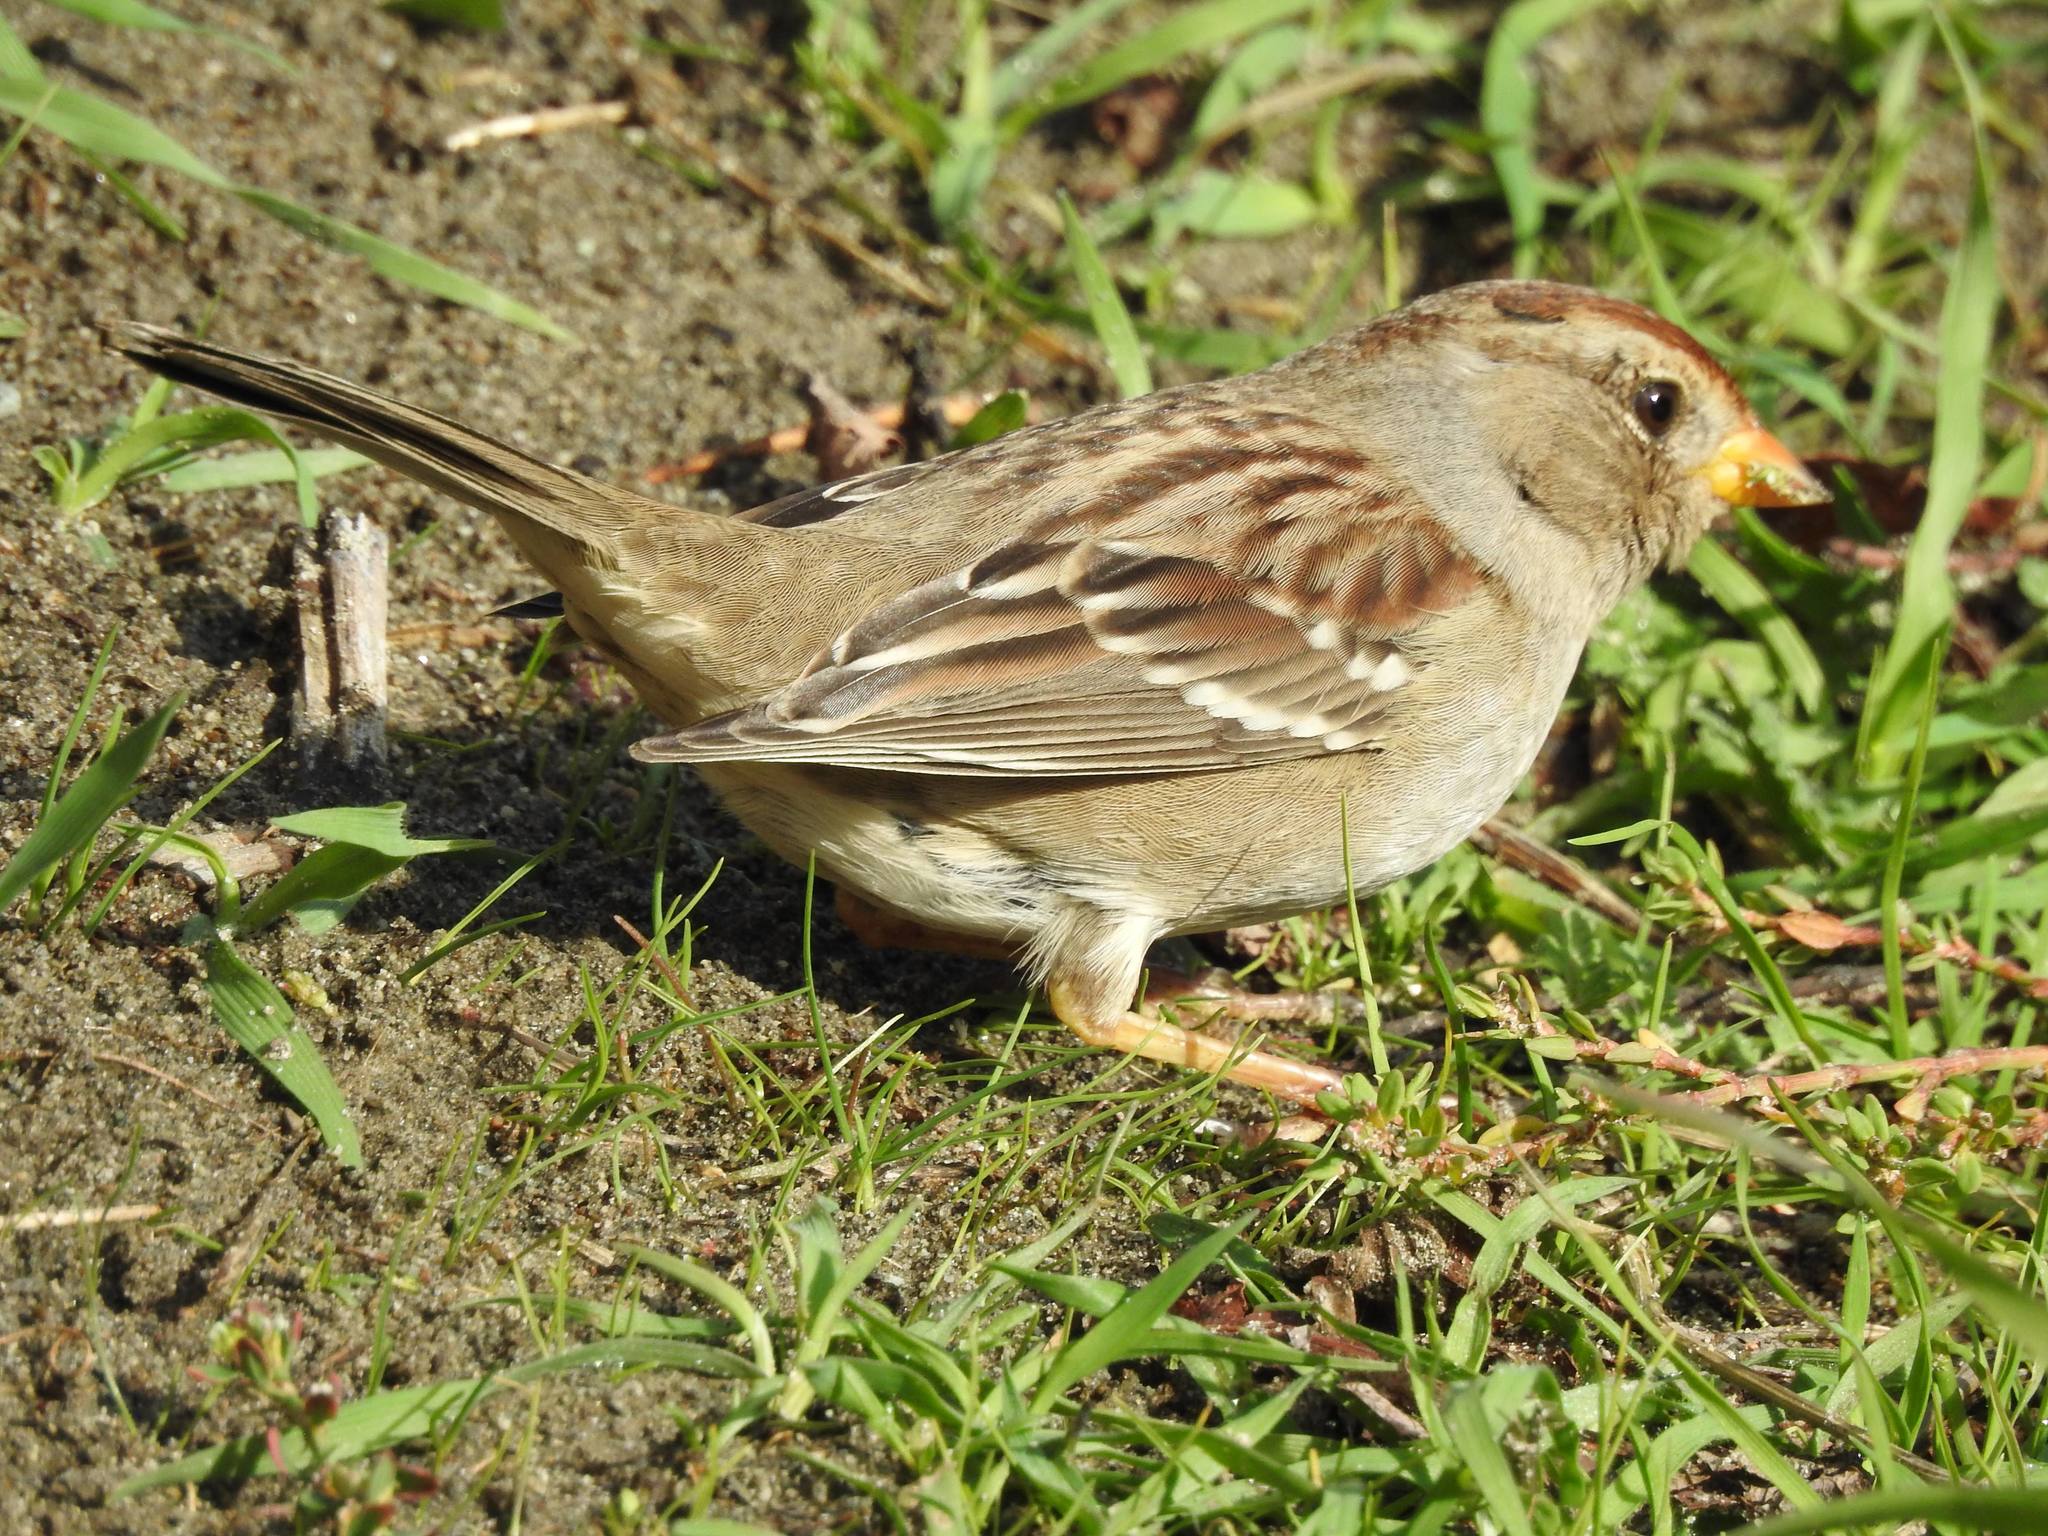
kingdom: Animalia
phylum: Chordata
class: Aves
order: Passeriformes
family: Passerellidae
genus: Zonotrichia
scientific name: Zonotrichia leucophrys
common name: White-crowned sparrow
